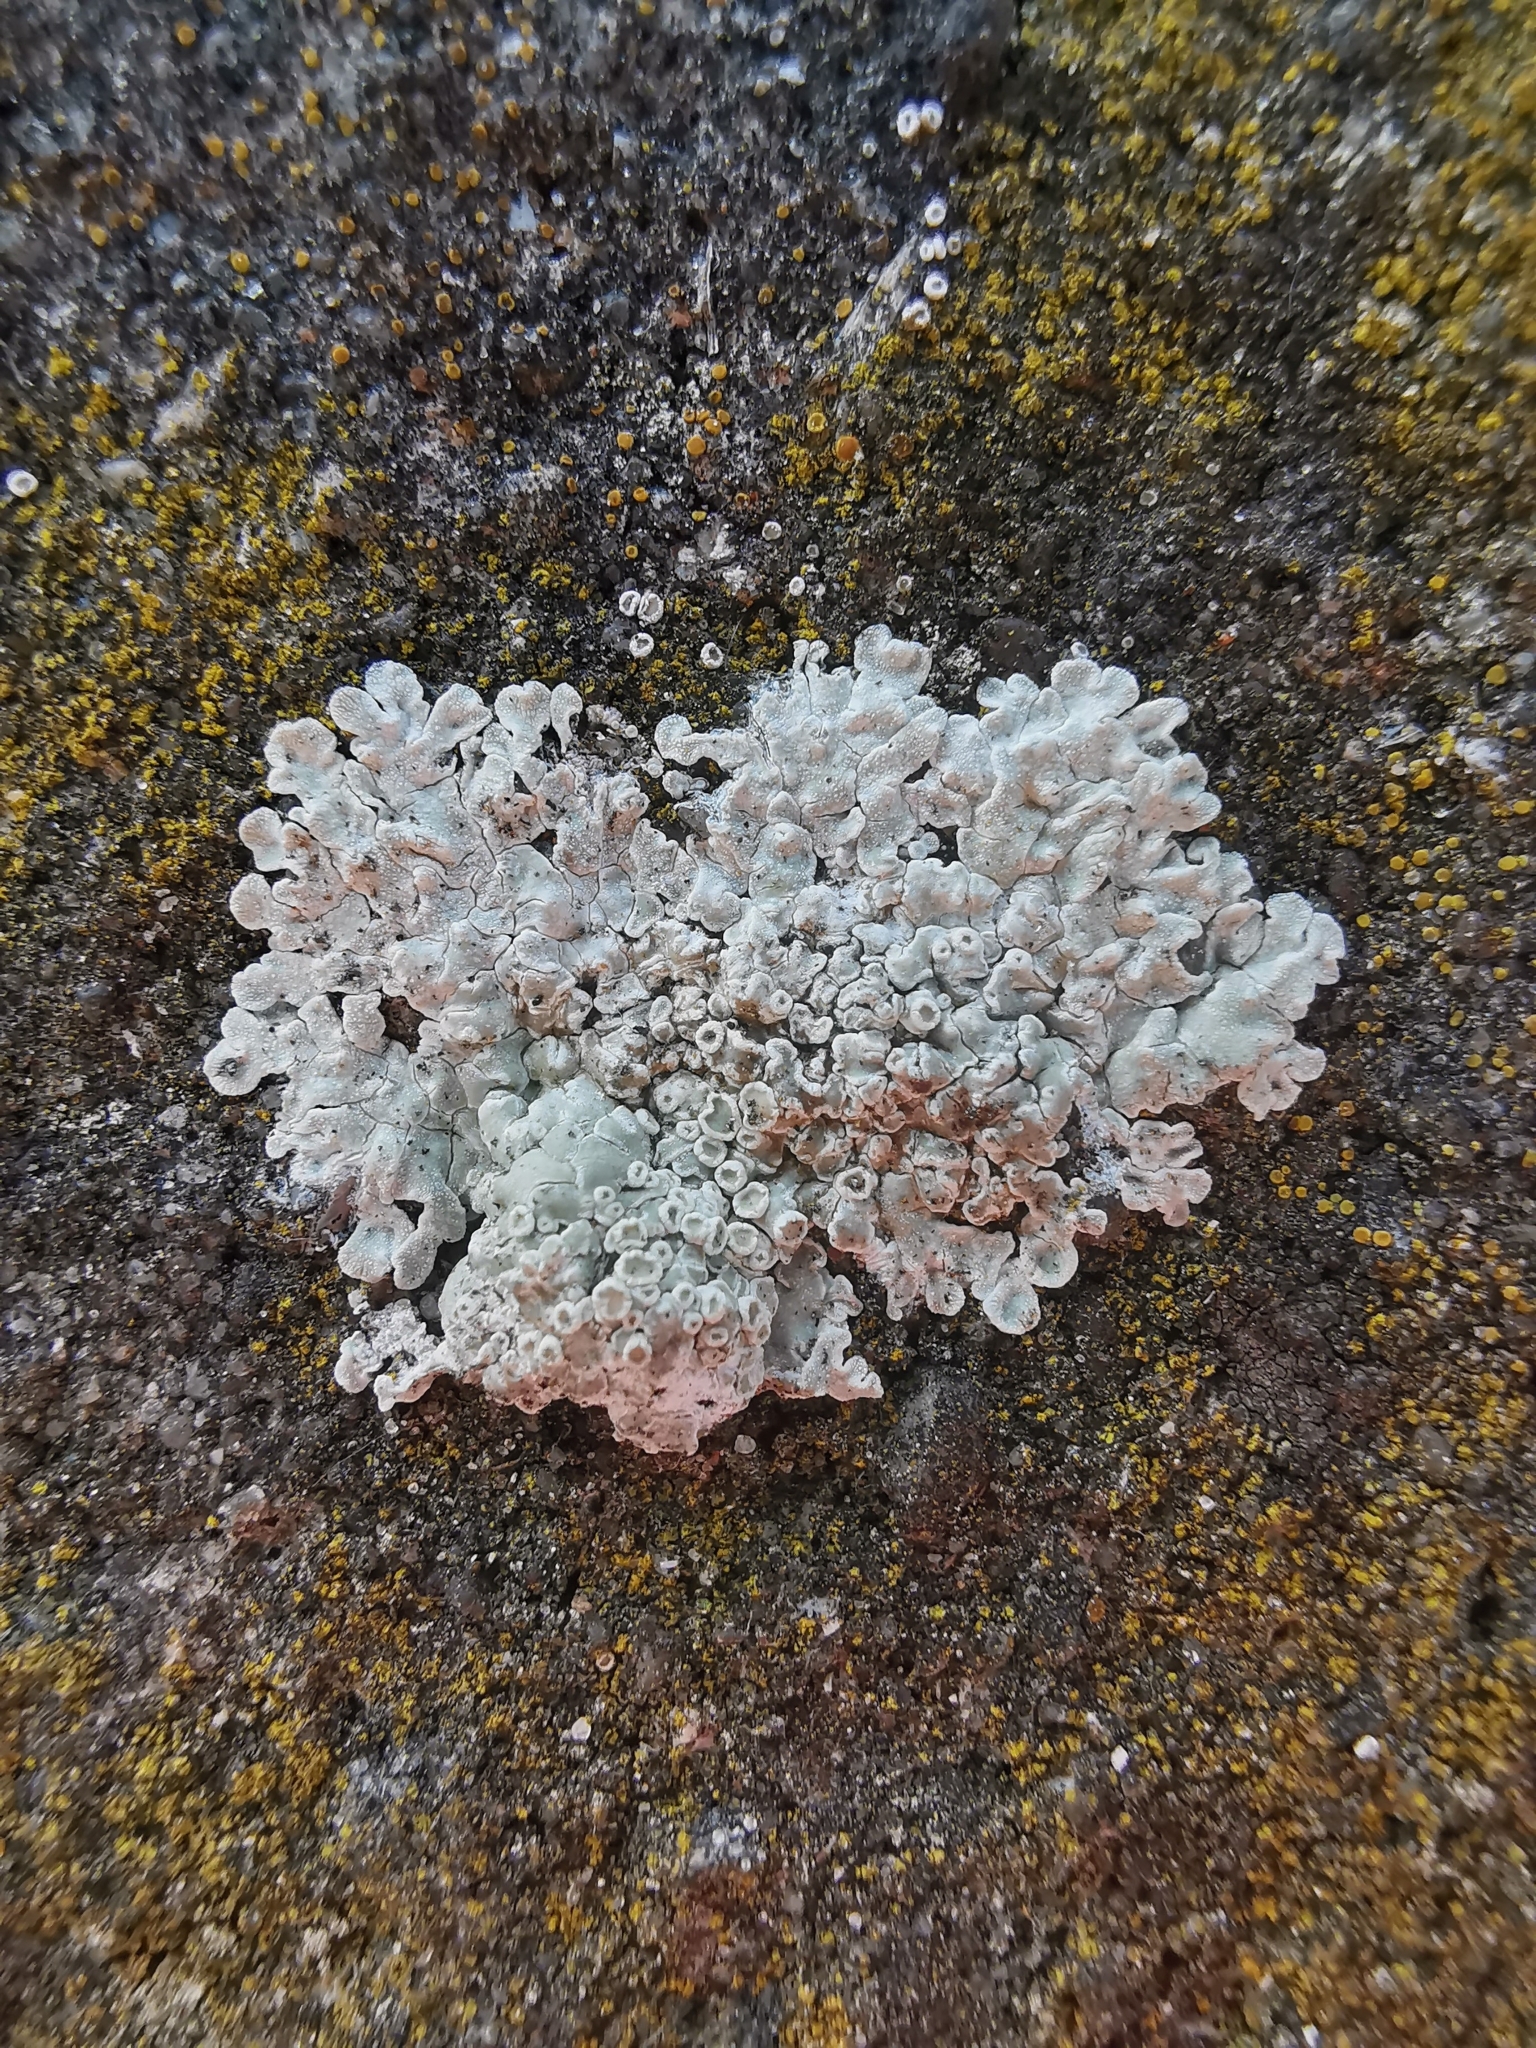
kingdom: Fungi
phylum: Ascomycota
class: Lecanoromycetes
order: Lecanorales
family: Lecanoraceae
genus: Protoparmeliopsis
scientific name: Protoparmeliopsis muralis
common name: Stonewall rim lichen
